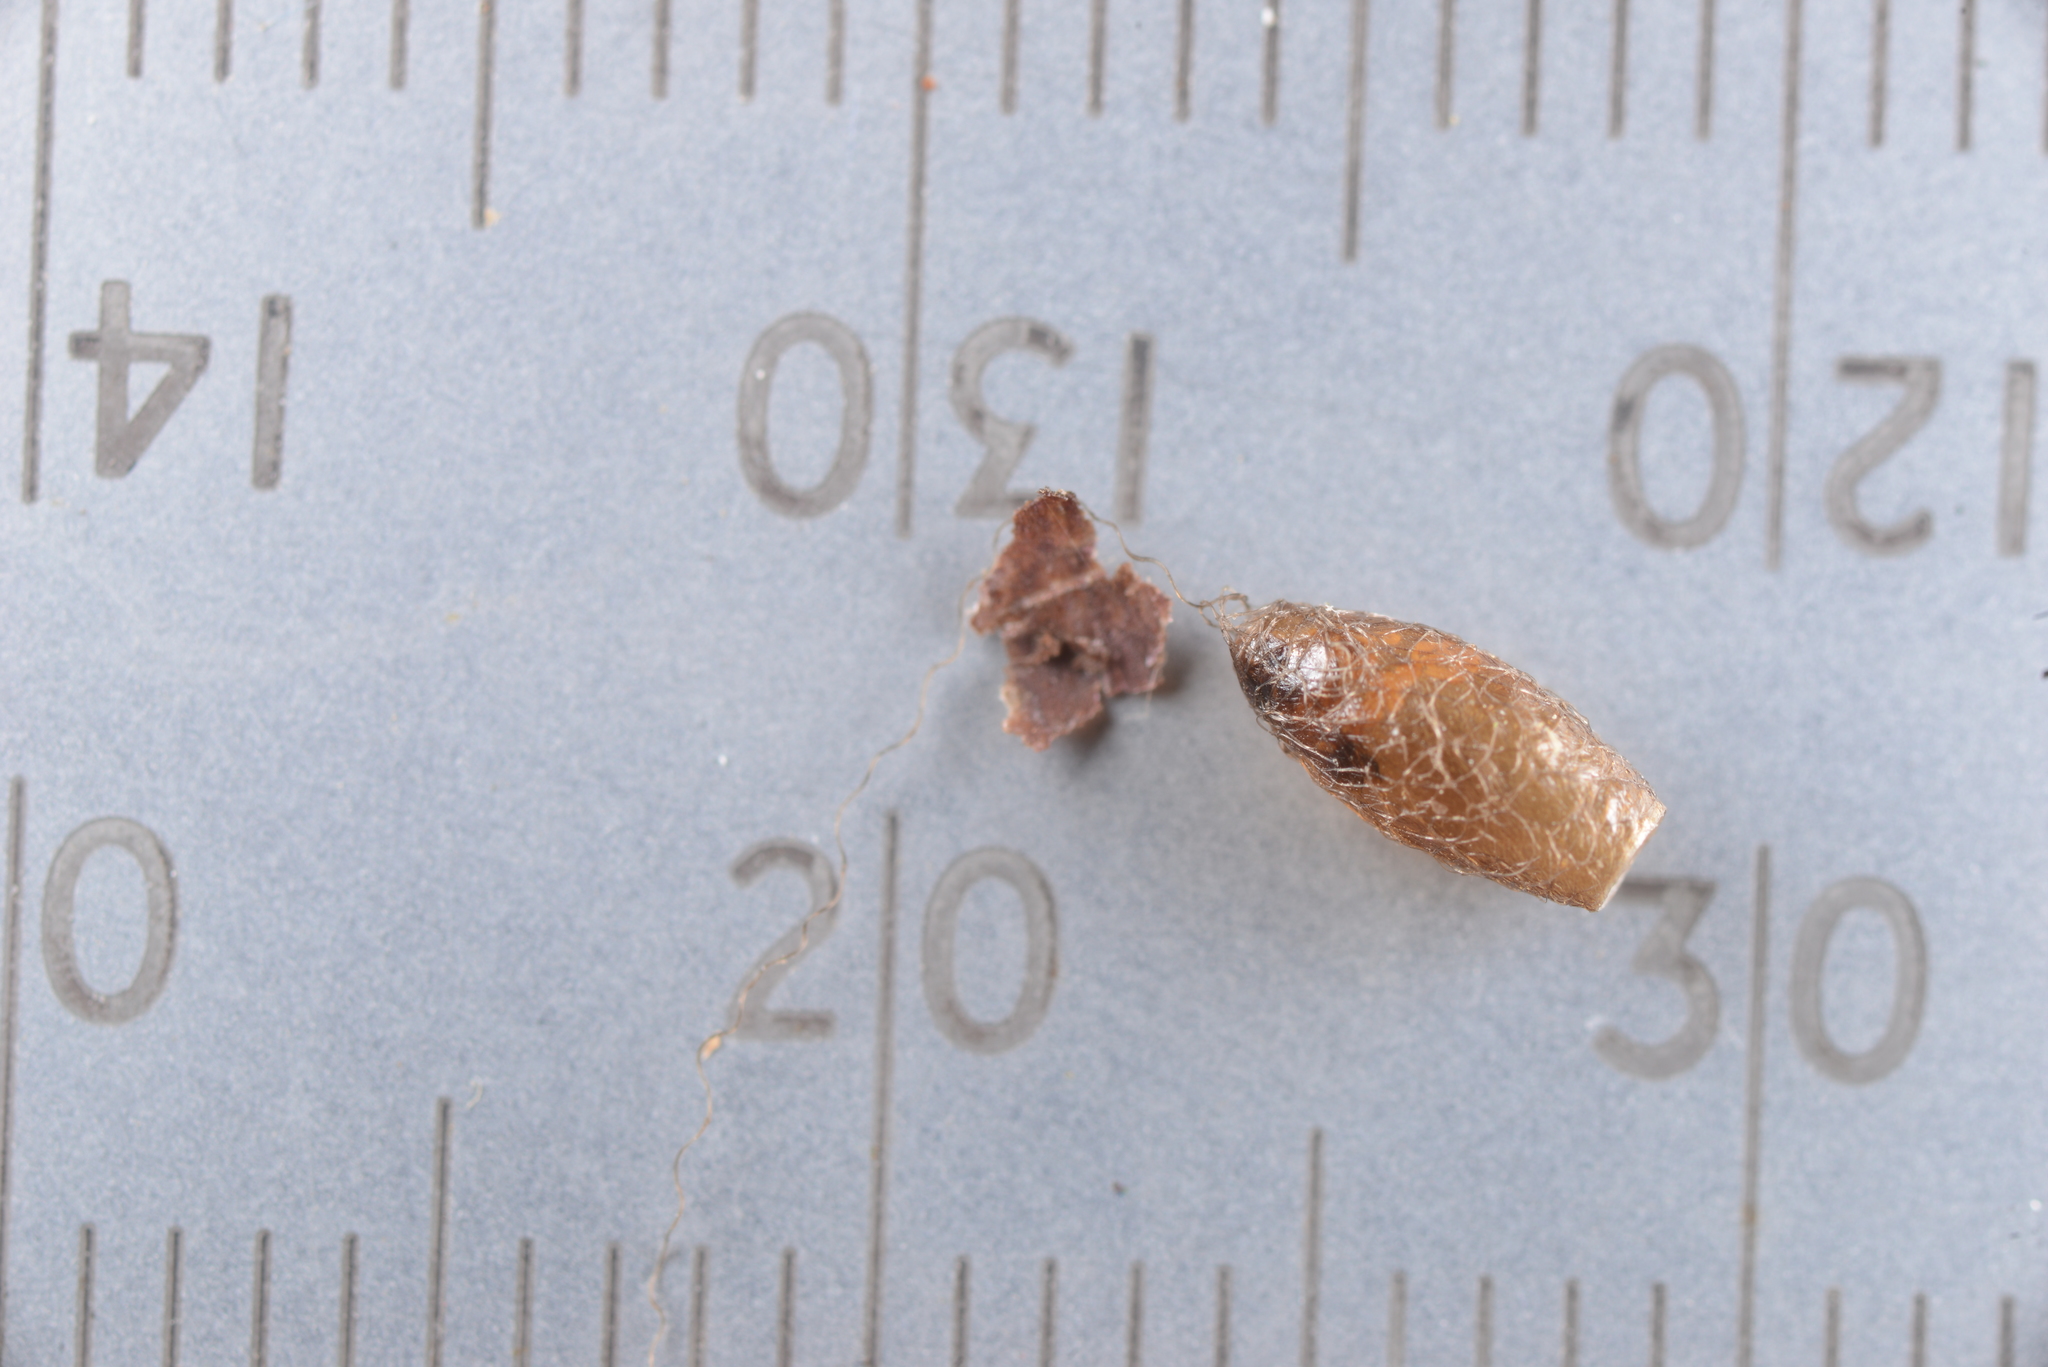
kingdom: Animalia
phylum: Arthropoda
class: Insecta
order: Hymenoptera
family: Braconidae
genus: Meteorus
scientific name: Meteorus pulchricornis
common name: Braconid wasp
